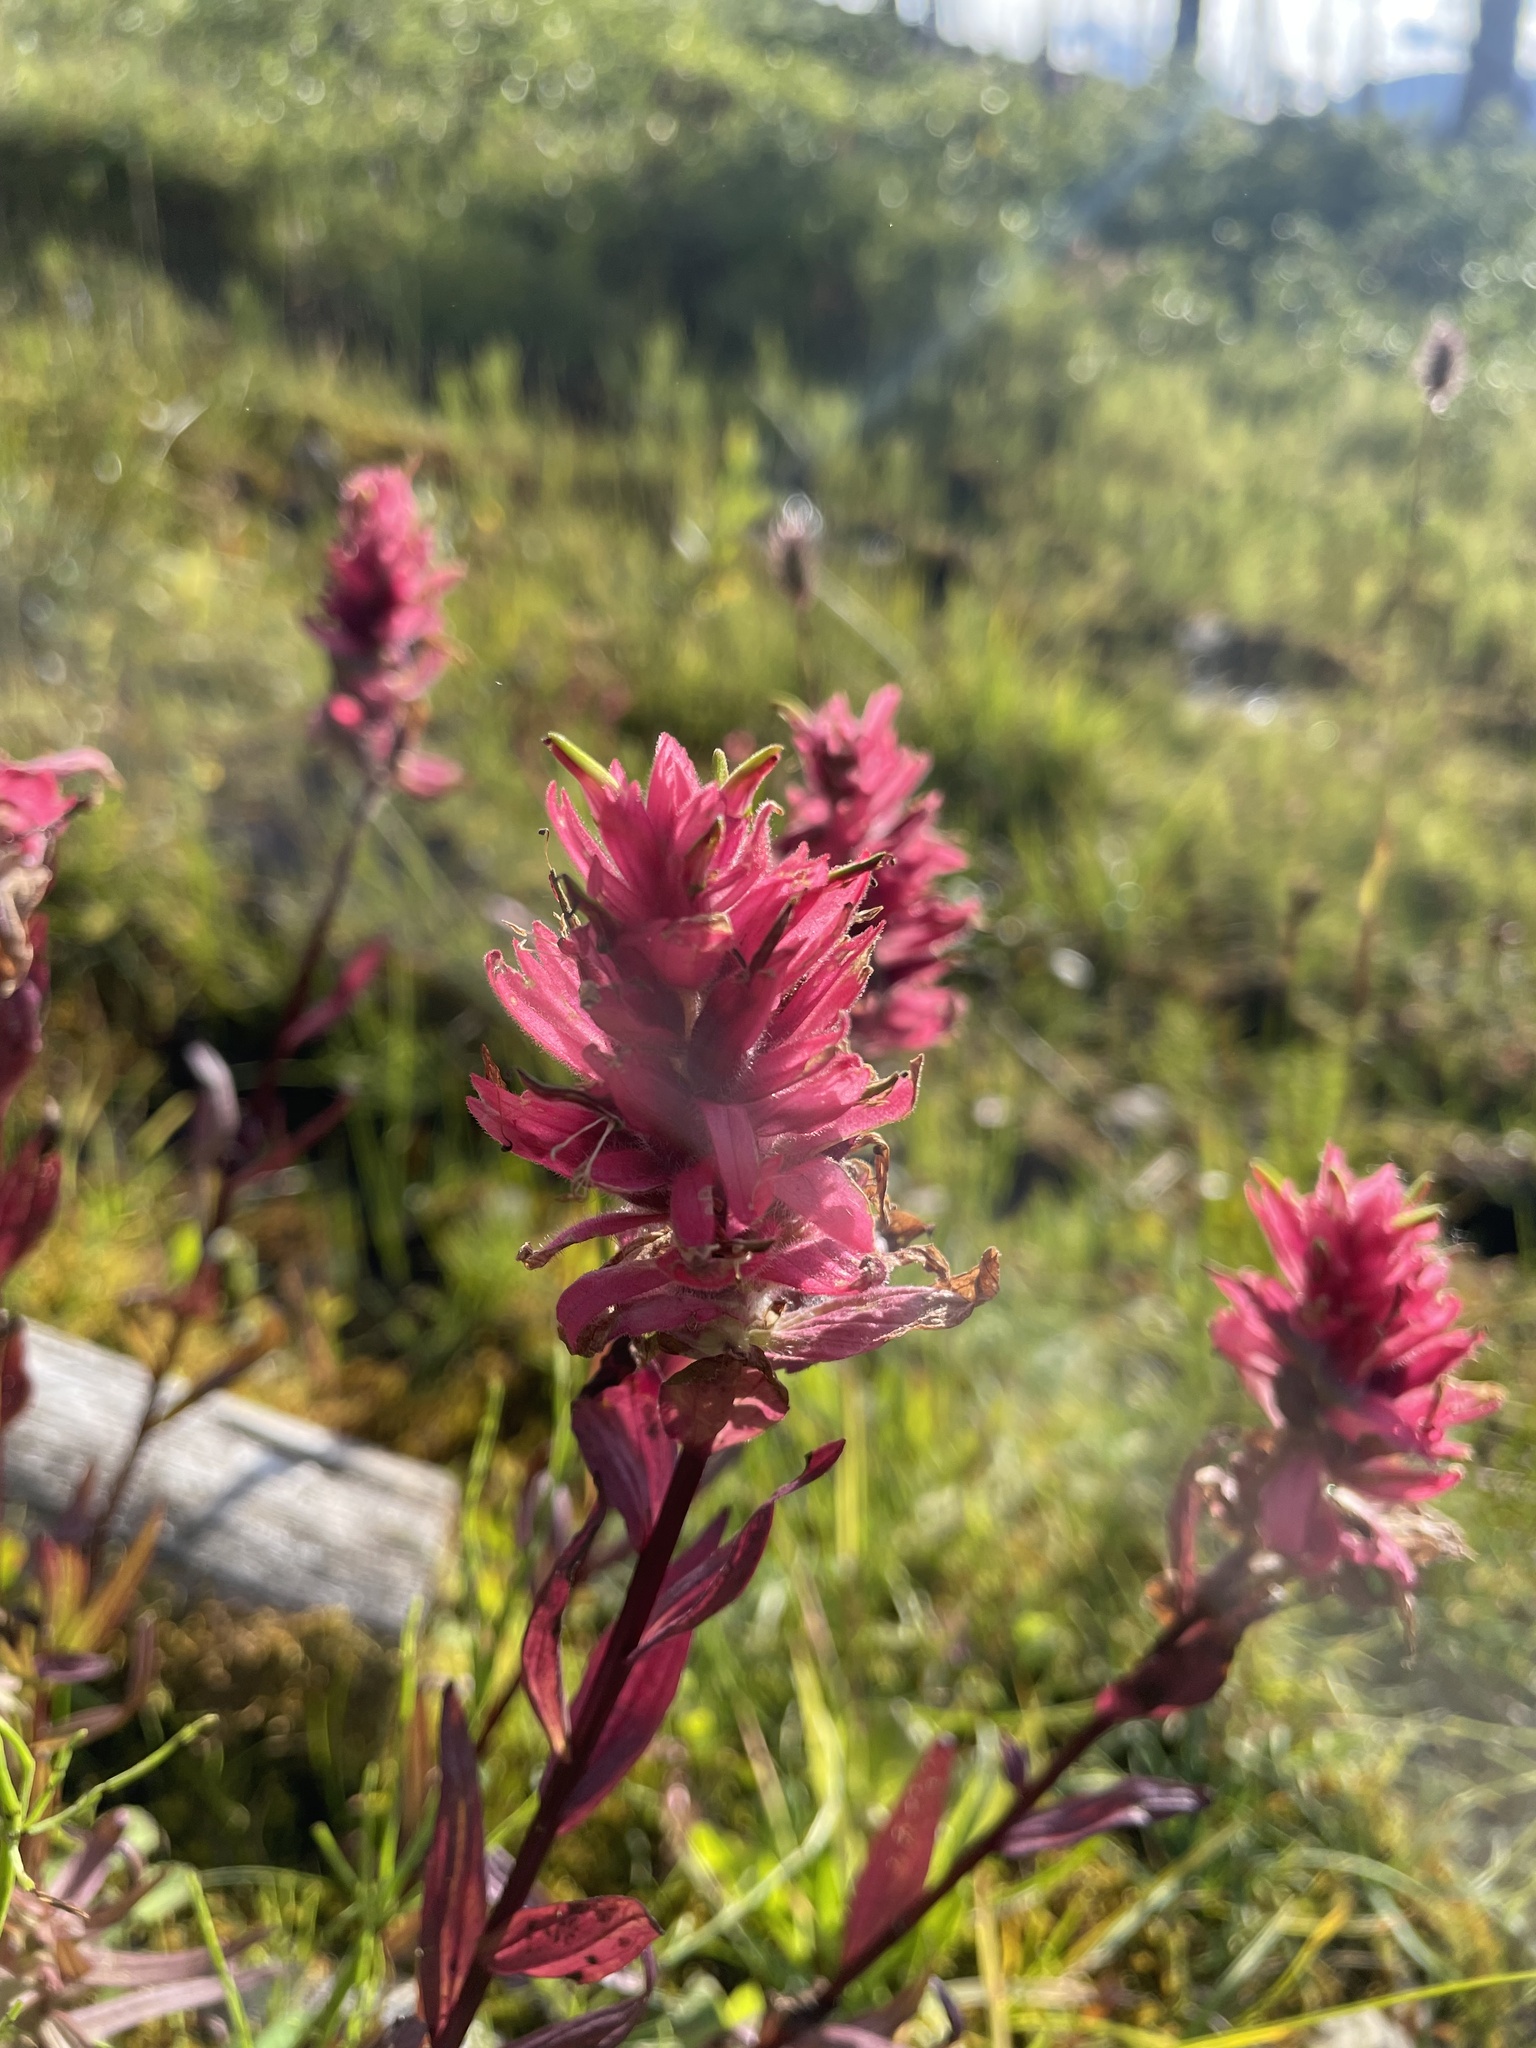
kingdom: Plantae
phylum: Tracheophyta
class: Magnoliopsida
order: Lamiales
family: Orobanchaceae
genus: Castilleja
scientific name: Castilleja rhexifolia
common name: Rocky mountain paintbrush
